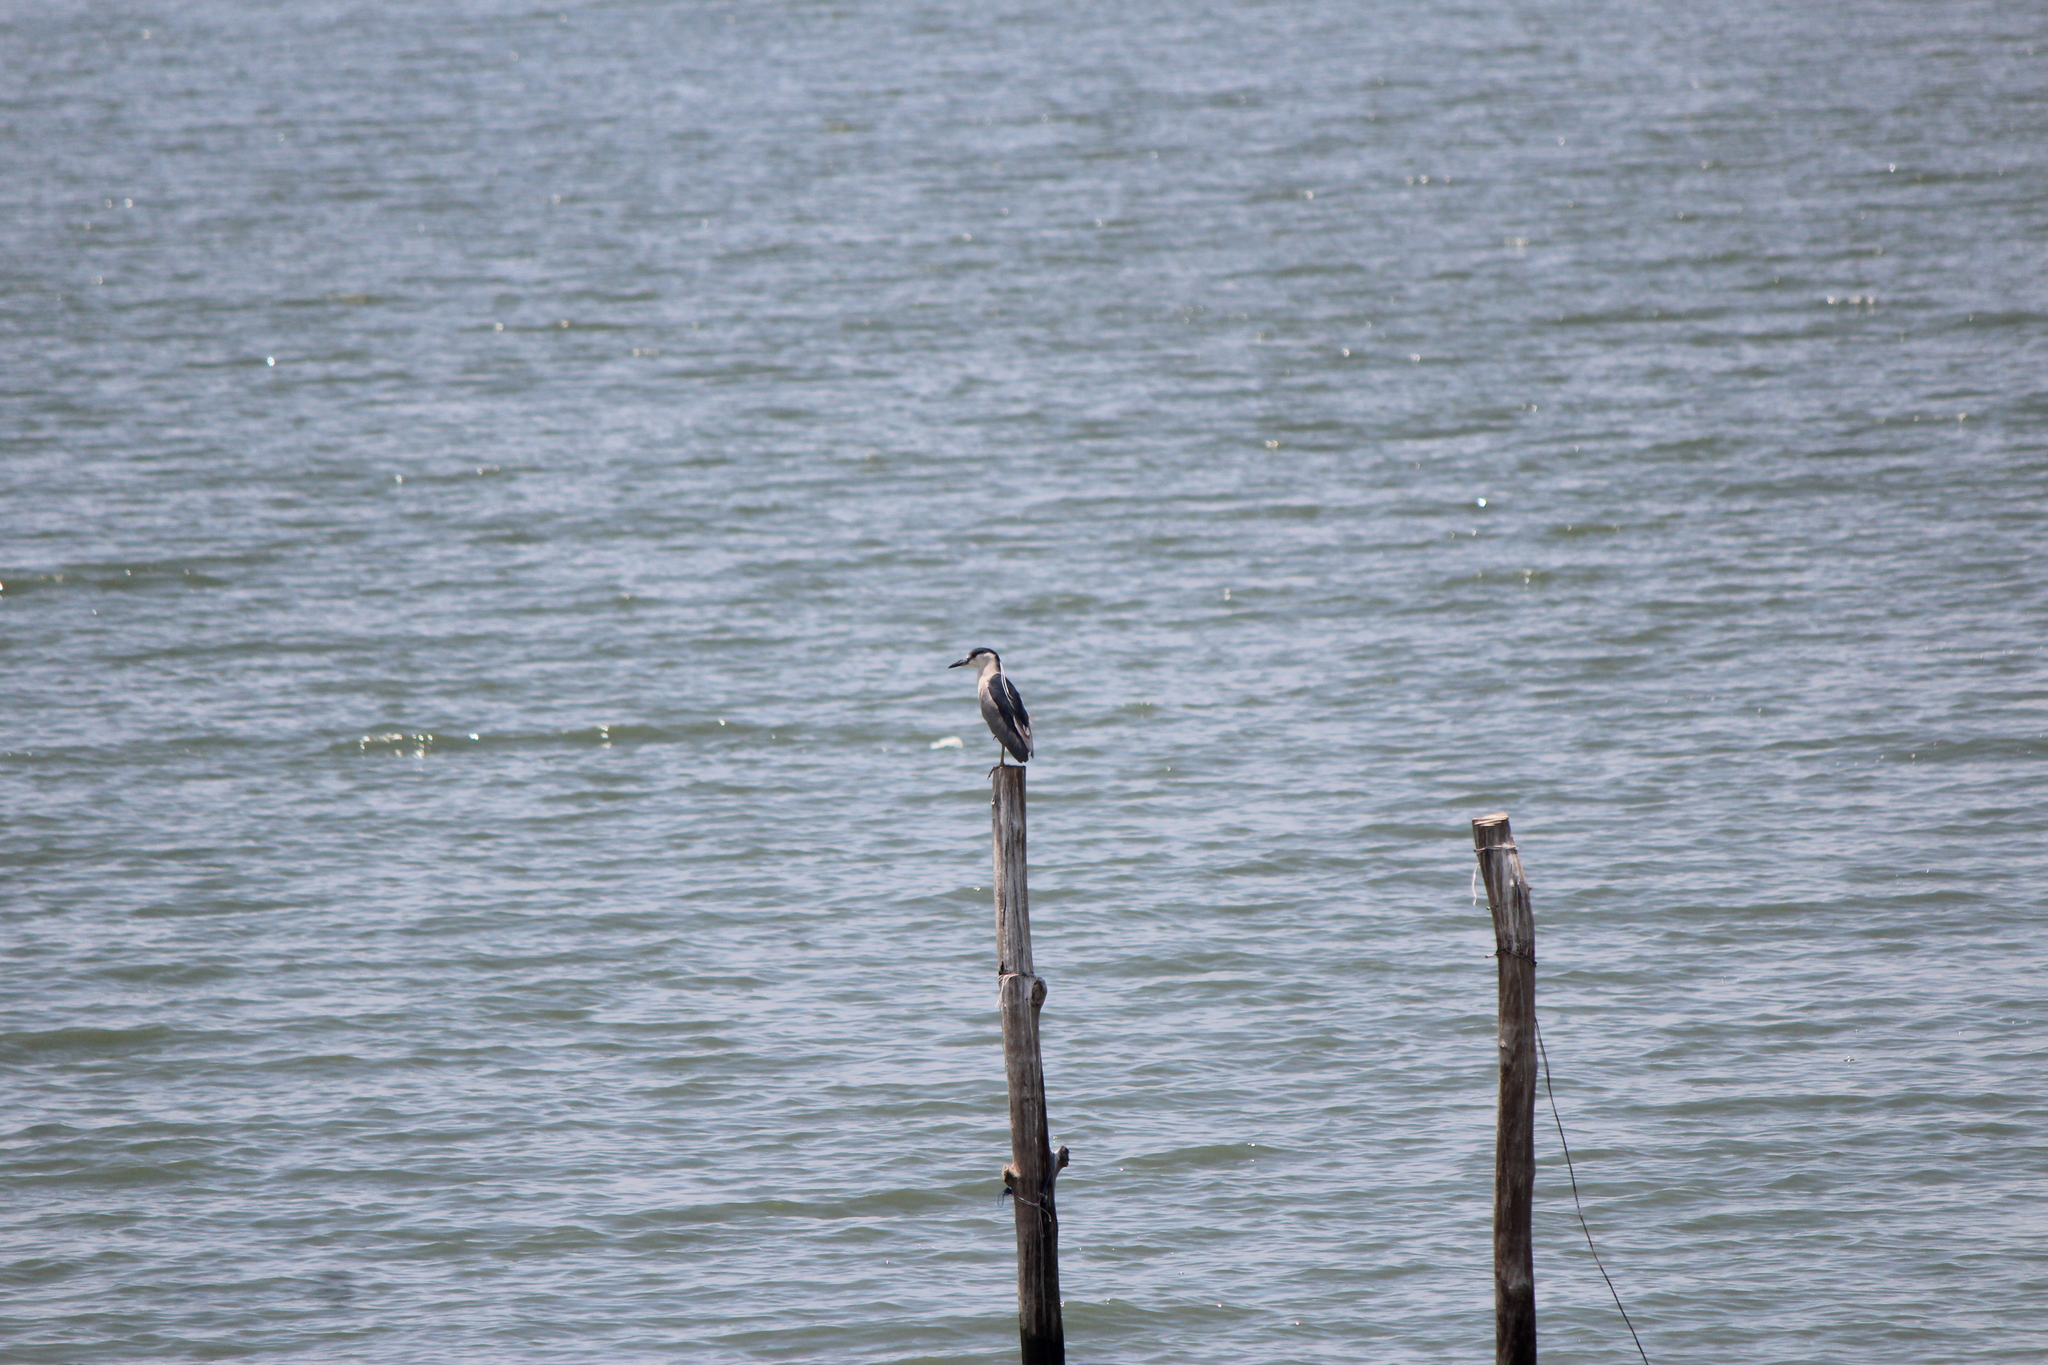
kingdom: Animalia
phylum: Chordata
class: Aves
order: Pelecaniformes
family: Ardeidae
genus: Nycticorax
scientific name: Nycticorax nycticorax
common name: Black-crowned night heron
